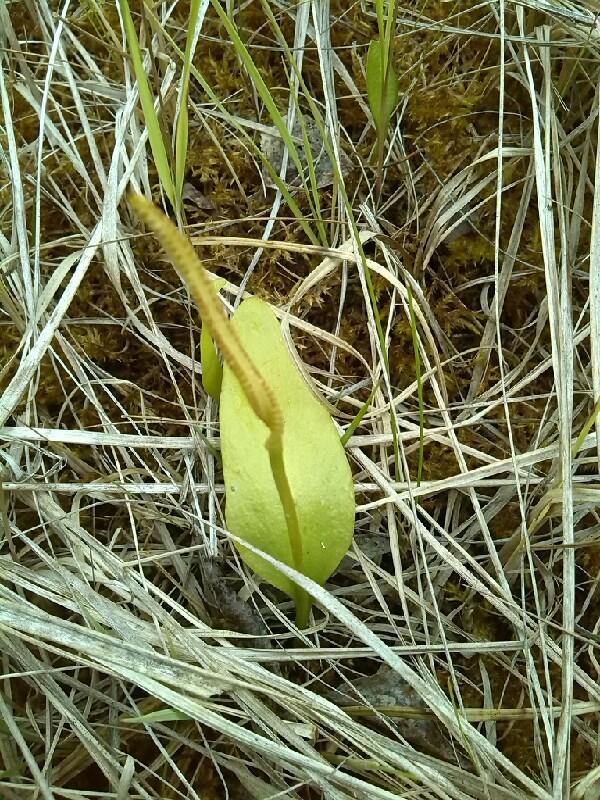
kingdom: Plantae
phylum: Tracheophyta
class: Polypodiopsida
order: Ophioglossales
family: Ophioglossaceae
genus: Ophioglossum
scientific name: Ophioglossum vulgatum
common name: Adder's-tongue
